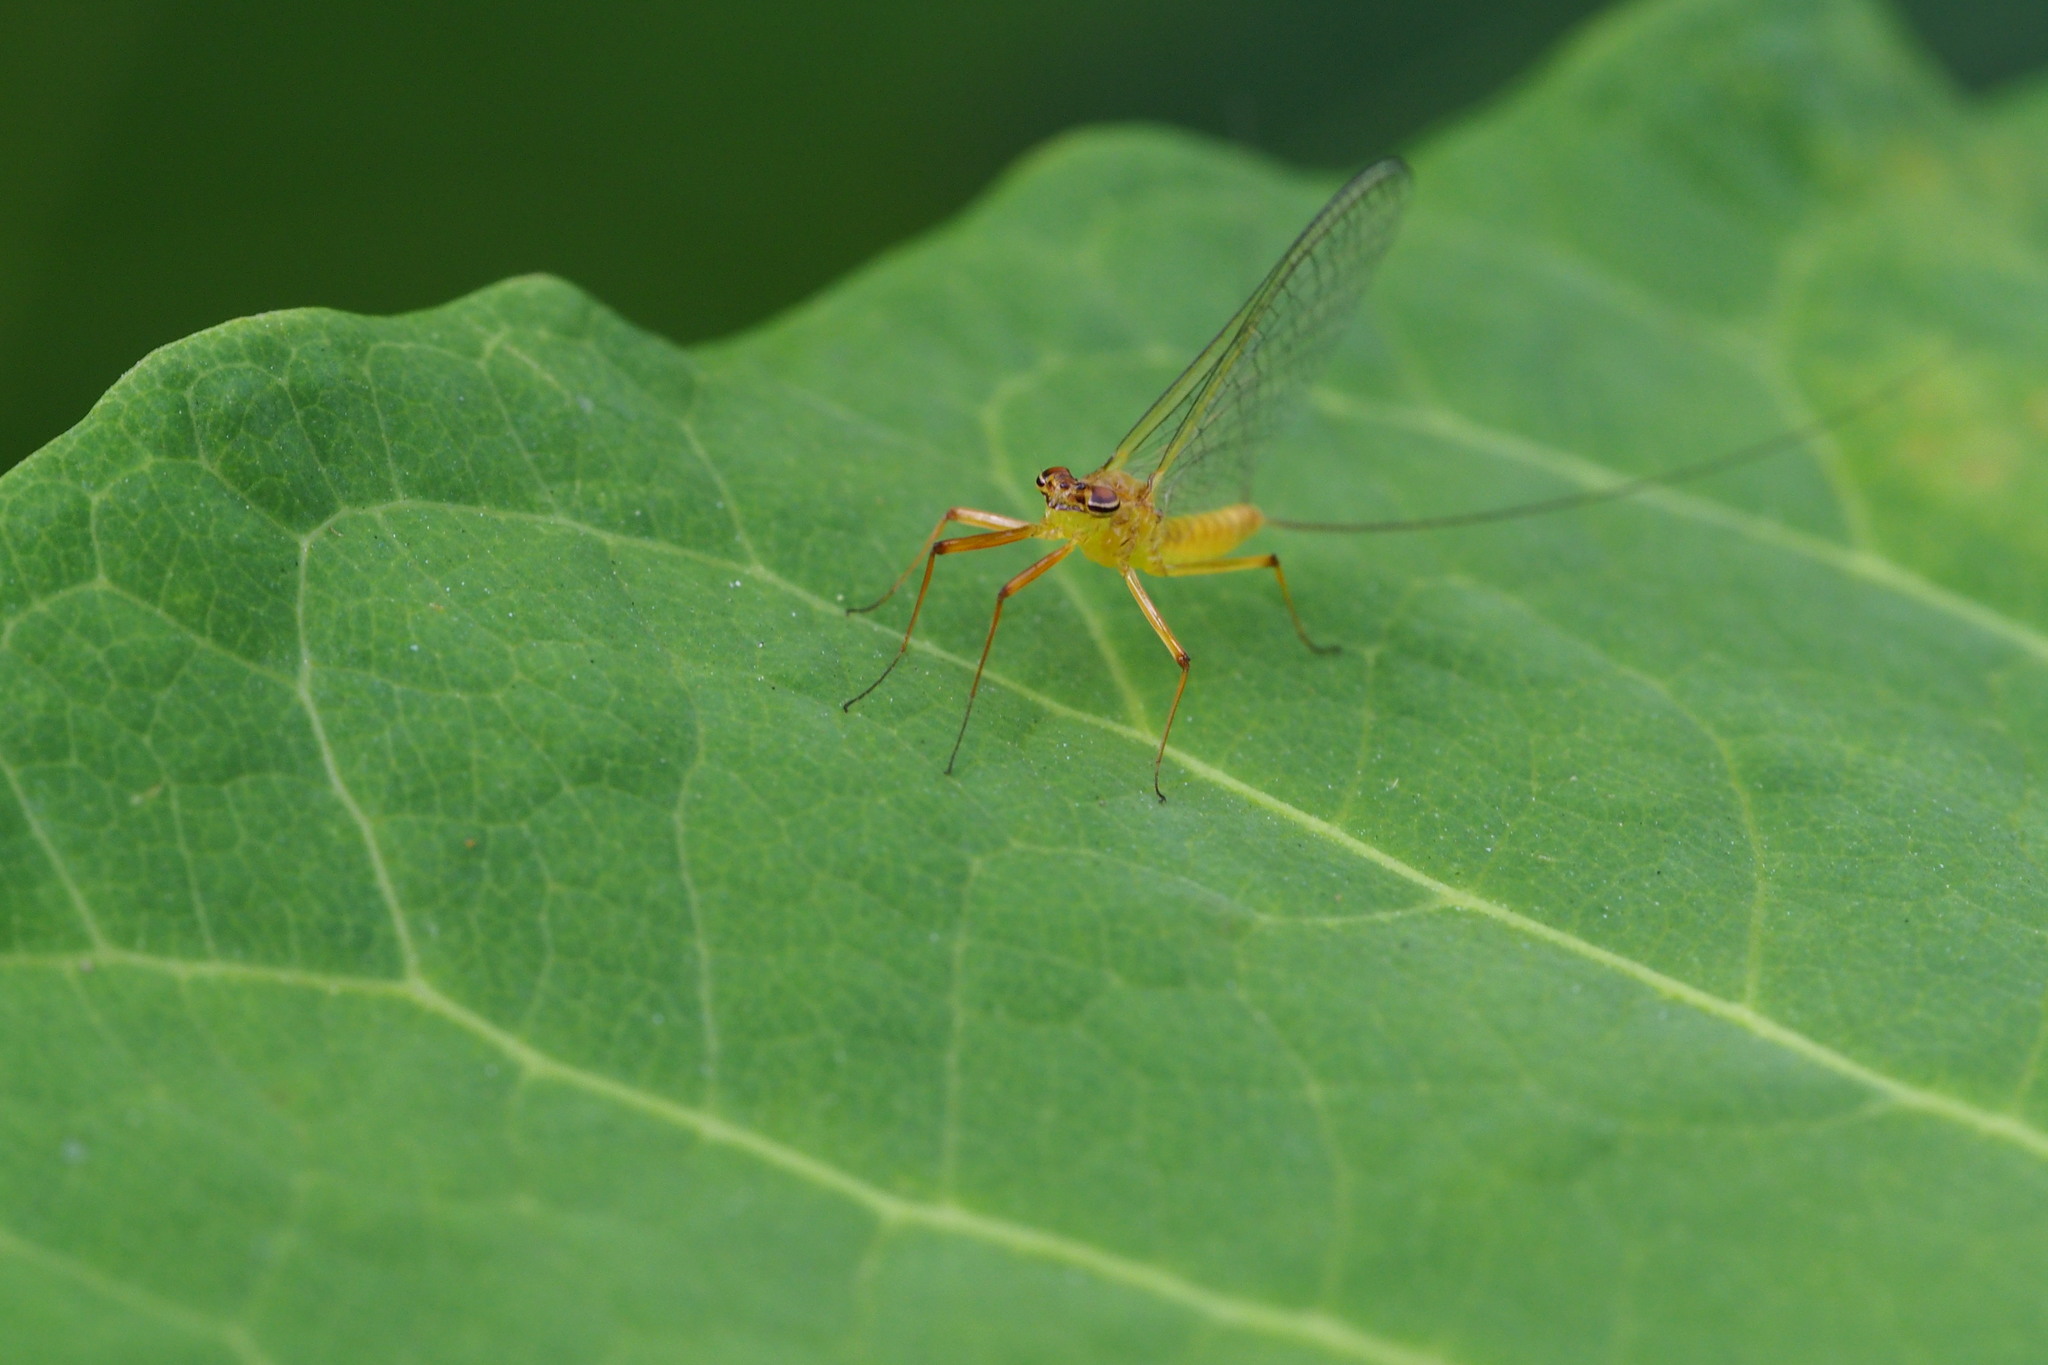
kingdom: Animalia
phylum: Arthropoda
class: Insecta
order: Ephemeroptera
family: Heptageniidae
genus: Ecdyonurus
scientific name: Ecdyonurus viridis
